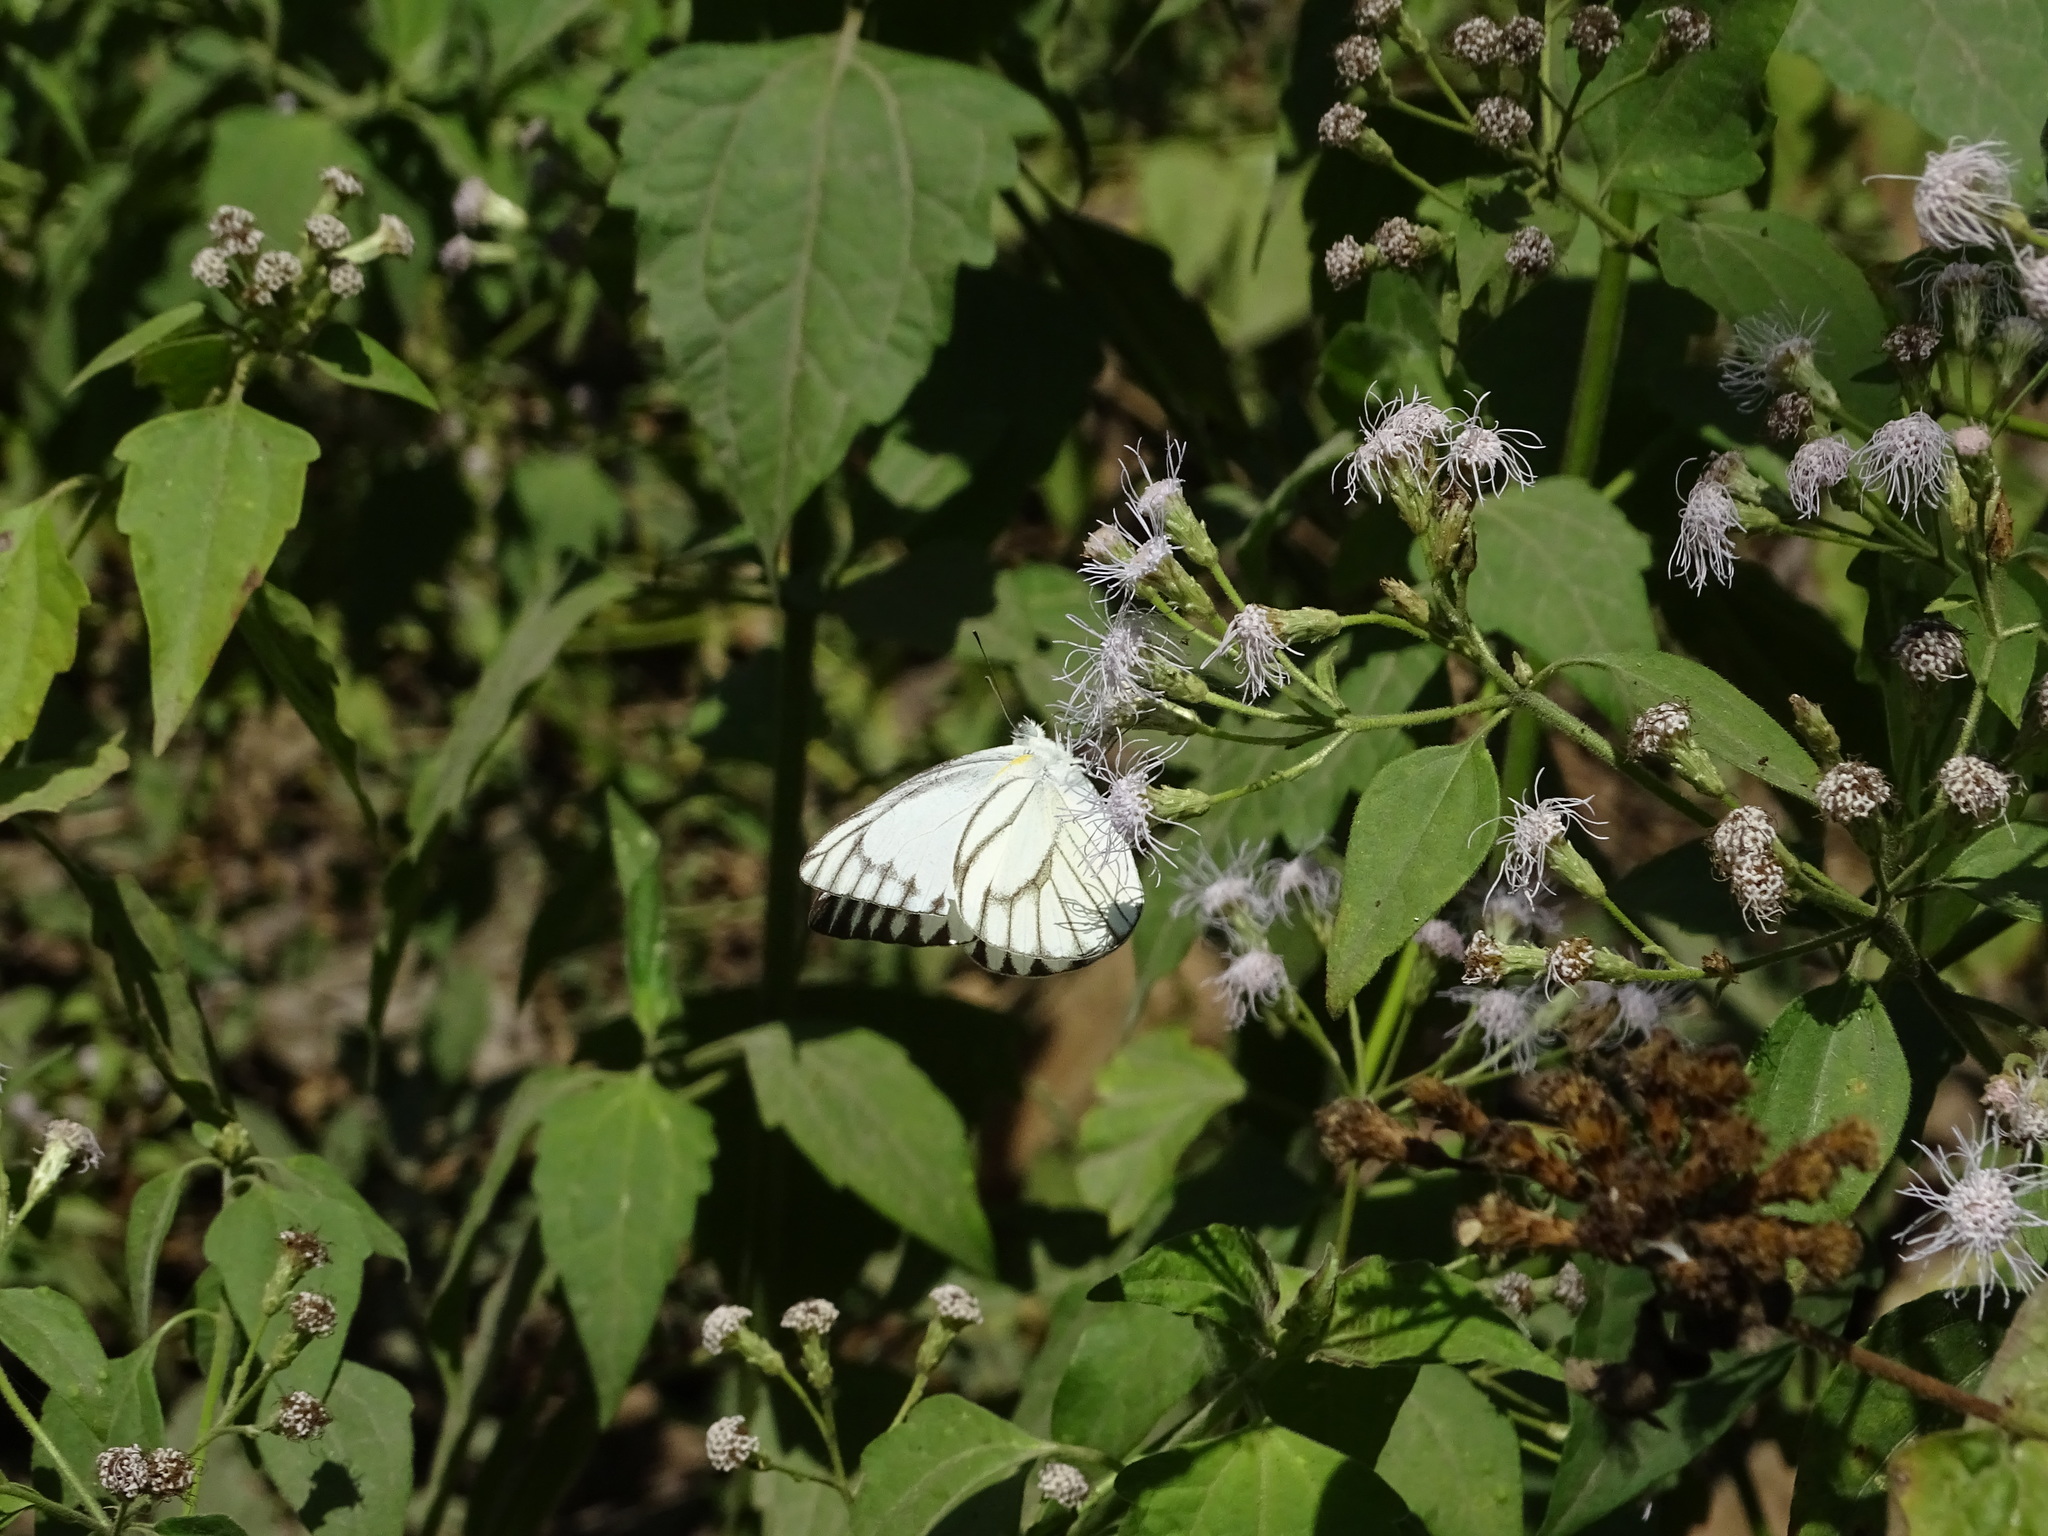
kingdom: Animalia
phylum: Arthropoda
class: Insecta
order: Lepidoptera
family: Pieridae
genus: Appias
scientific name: Appias libythea
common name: Striped albatross
